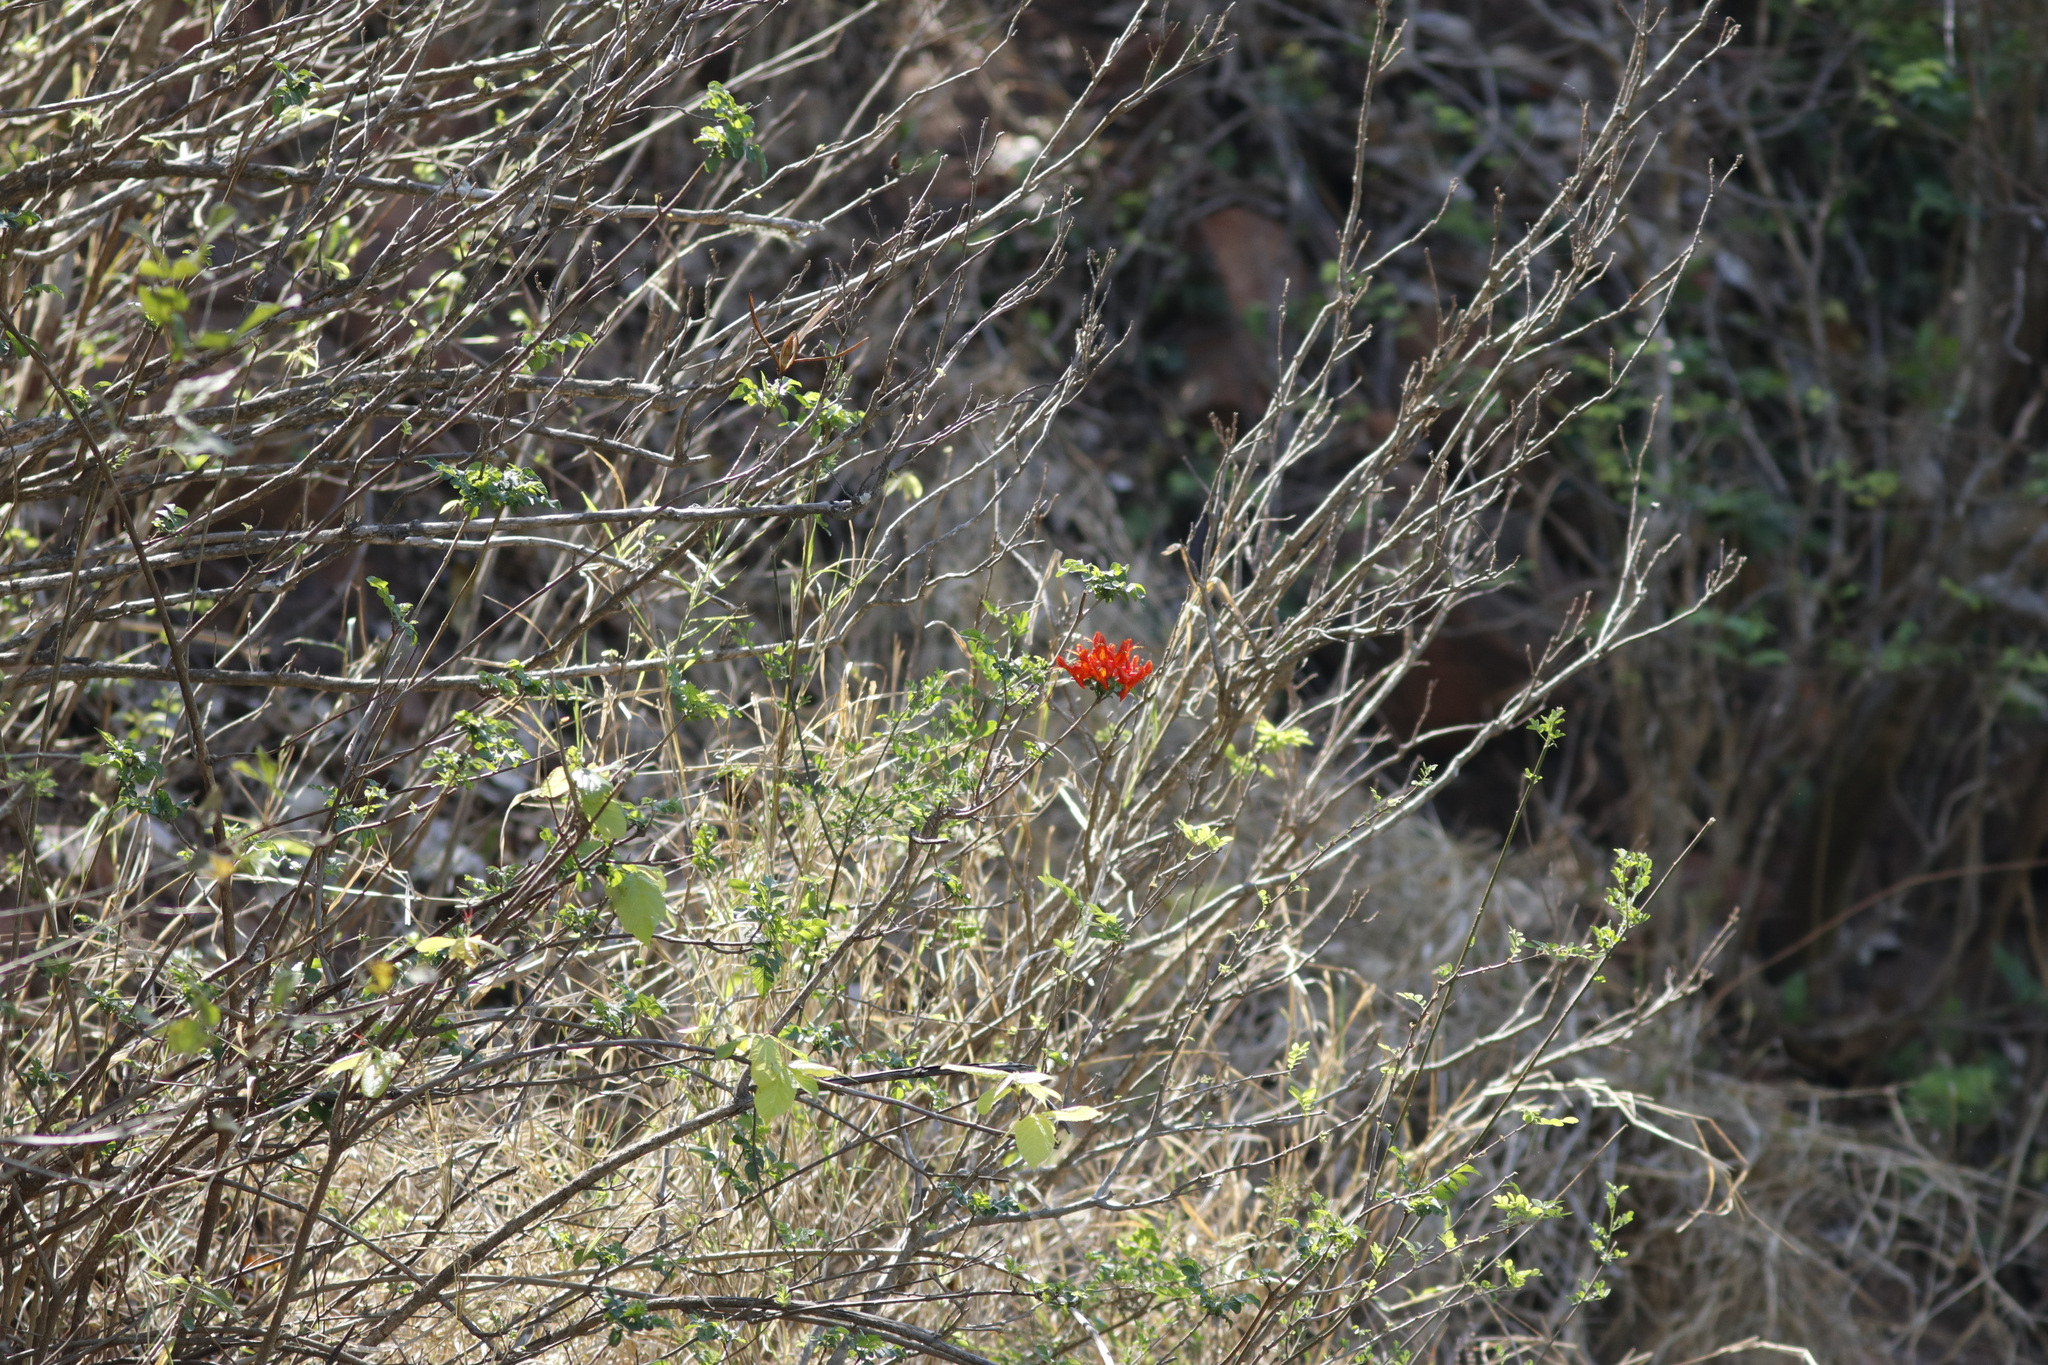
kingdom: Plantae
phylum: Tracheophyta
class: Magnoliopsida
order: Lamiales
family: Bignoniaceae
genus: Tecomaria
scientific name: Tecomaria capensis
